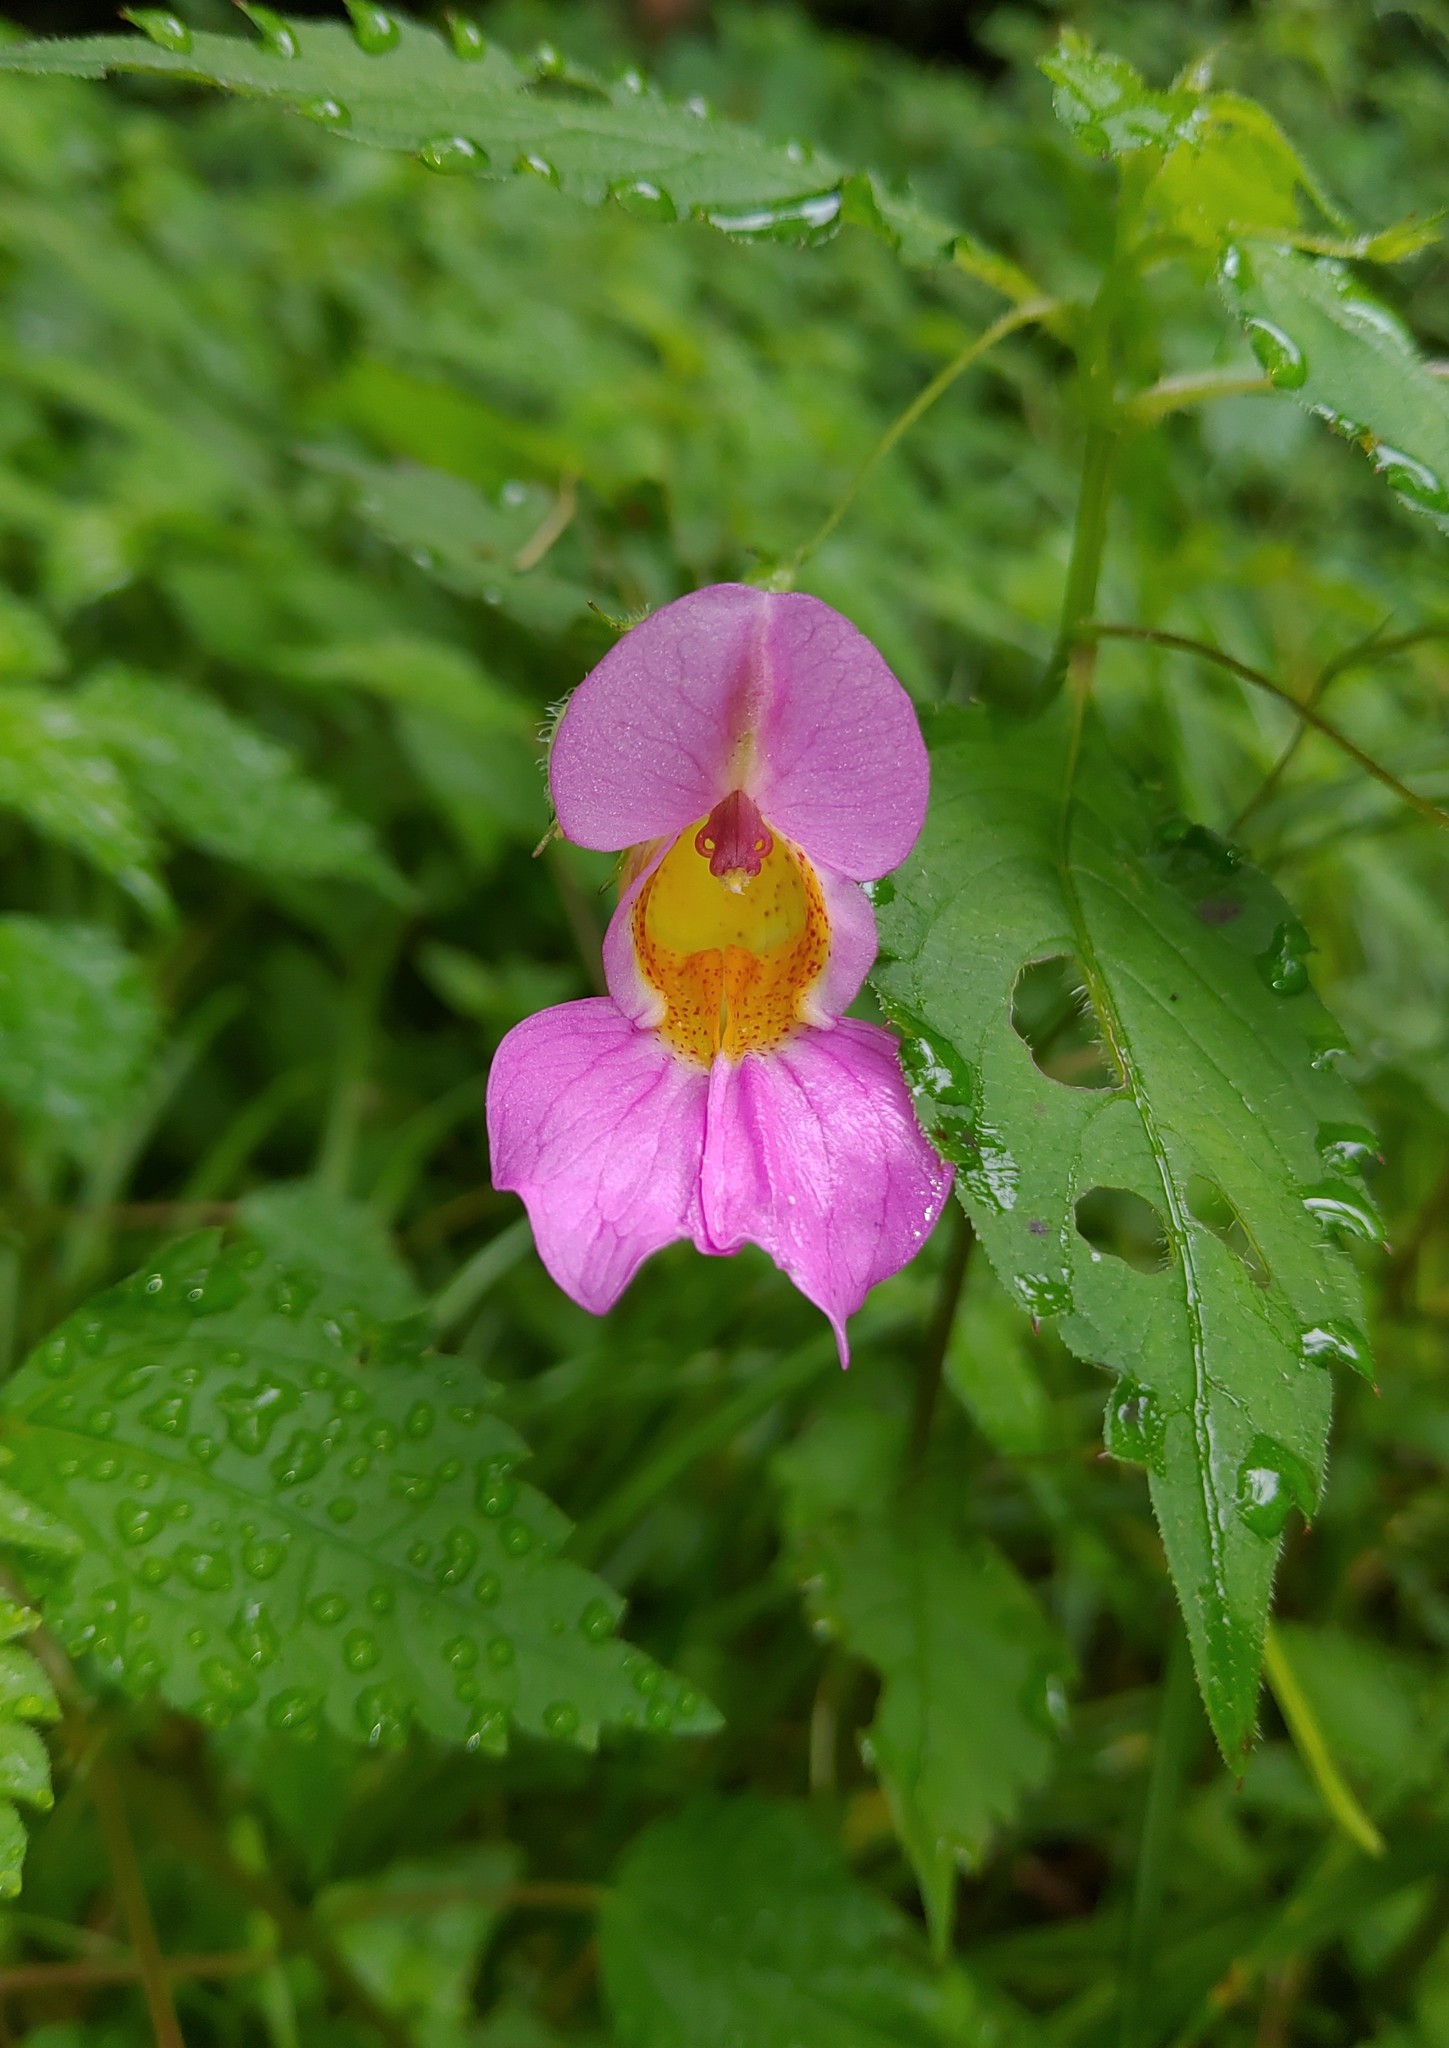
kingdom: Plantae
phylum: Tracheophyta
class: Magnoliopsida
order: Ericales
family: Balsaminaceae
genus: Impatiens
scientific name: Impatiens uniflora
